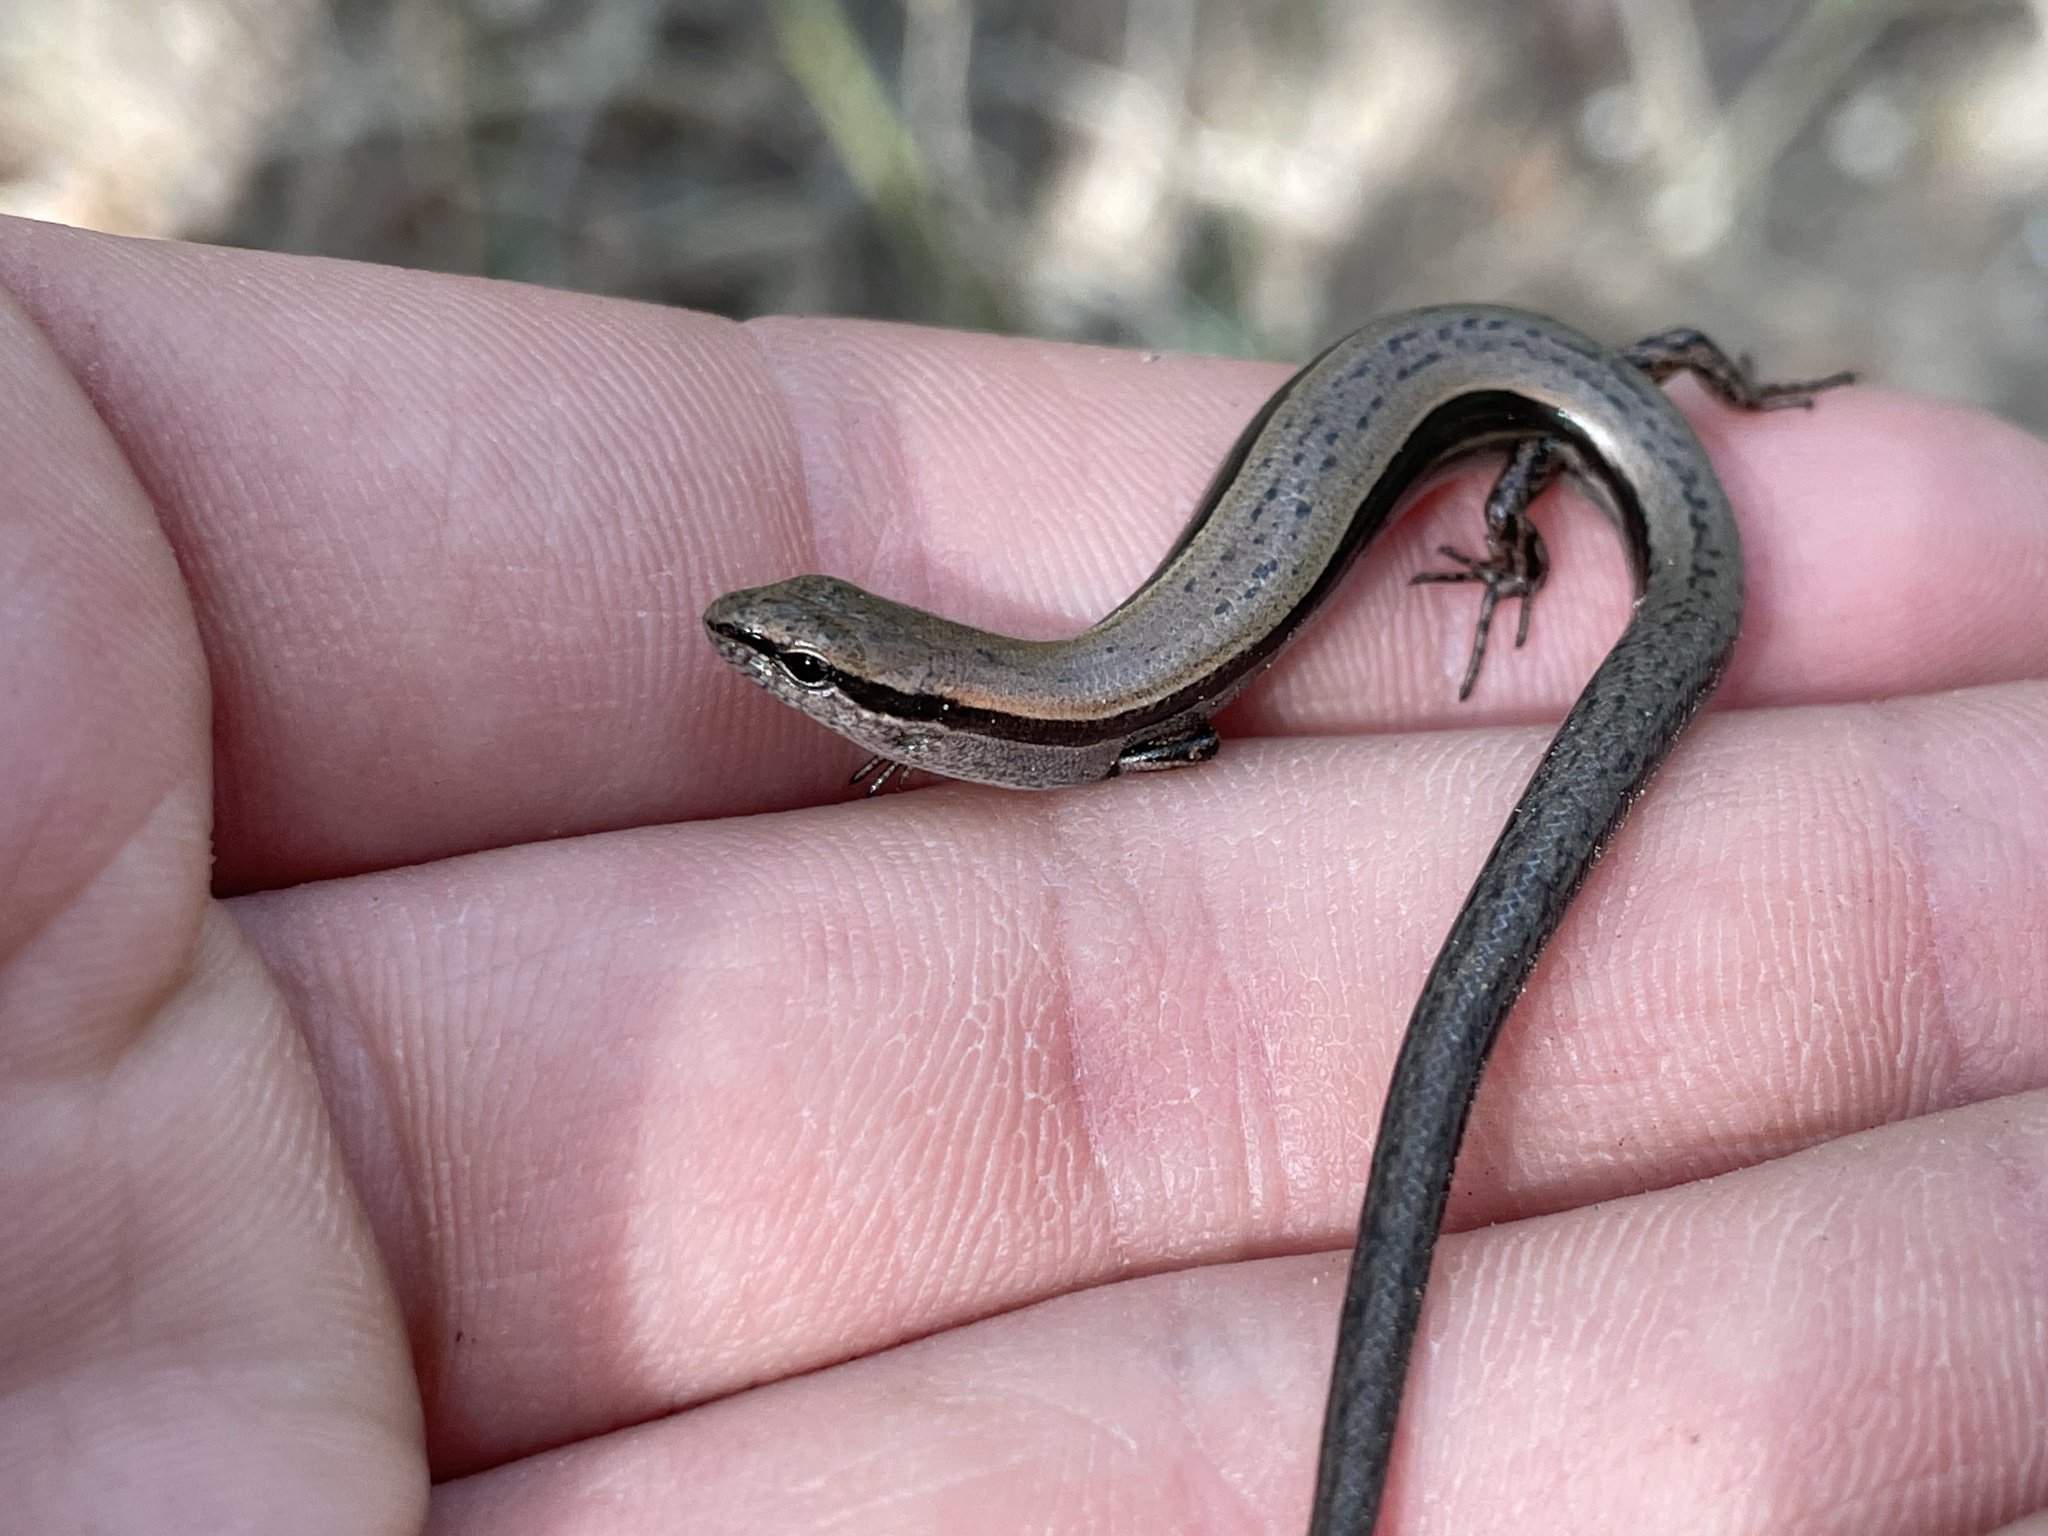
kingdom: Animalia
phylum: Chordata
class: Squamata
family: Scincidae
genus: Scincella
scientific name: Scincella lateralis
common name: Ground skink
